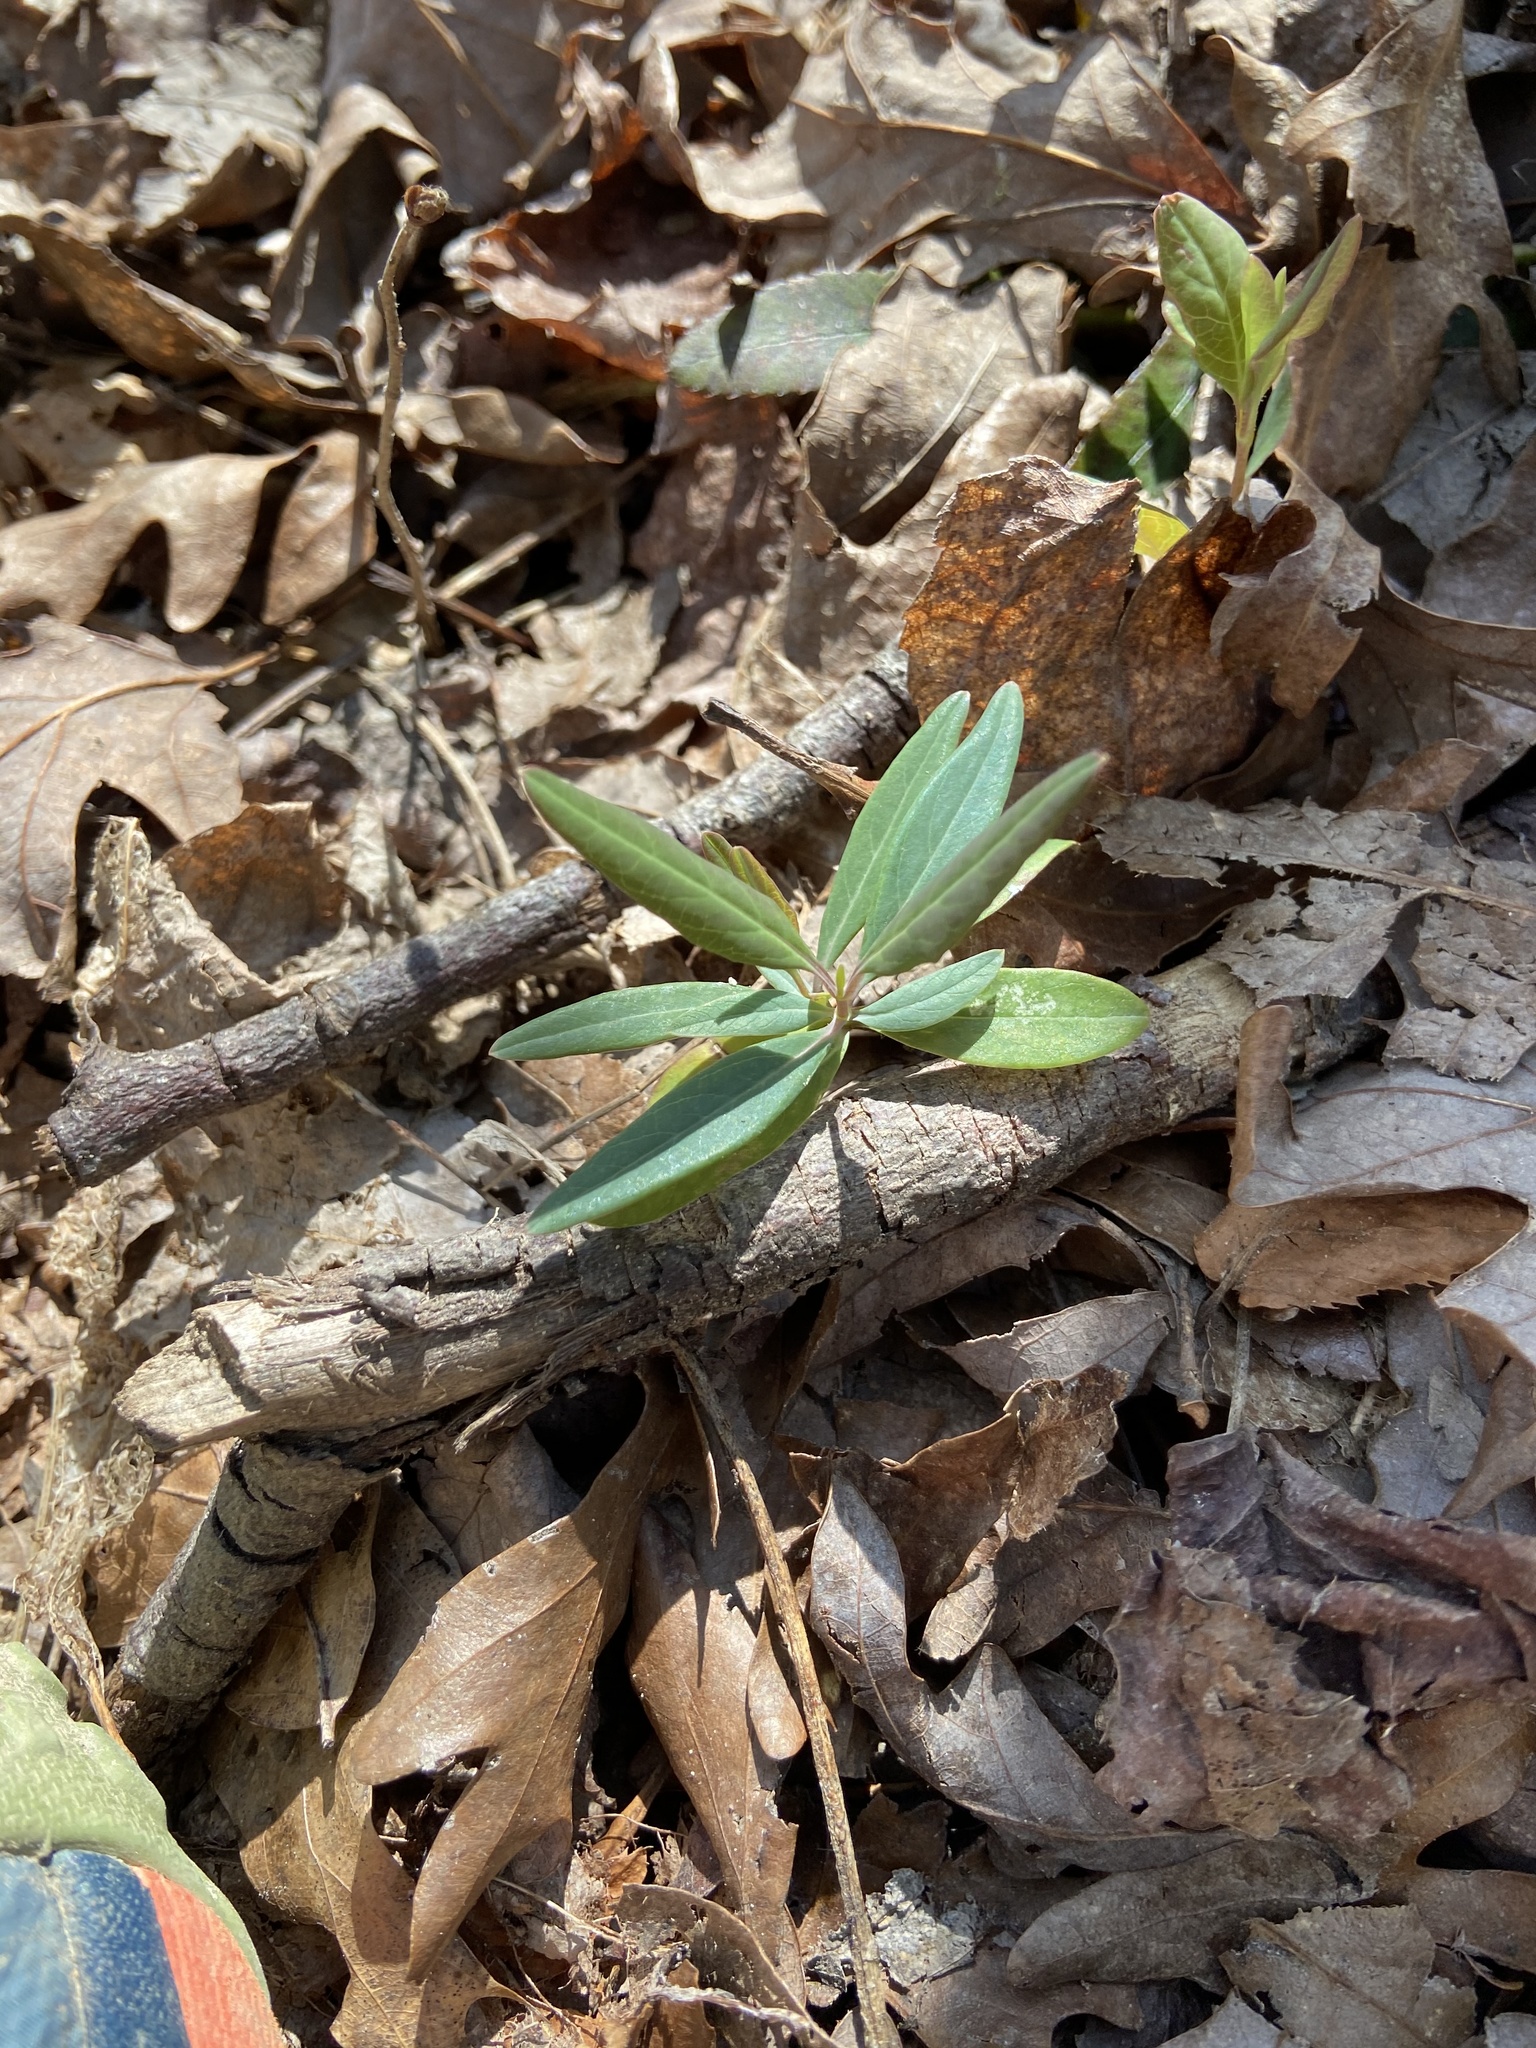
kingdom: Plantae
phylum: Tracheophyta
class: Magnoliopsida
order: Dipsacales
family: Caprifoliaceae
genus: Lonicera
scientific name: Lonicera sempervirens
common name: Coral honeysuckle
